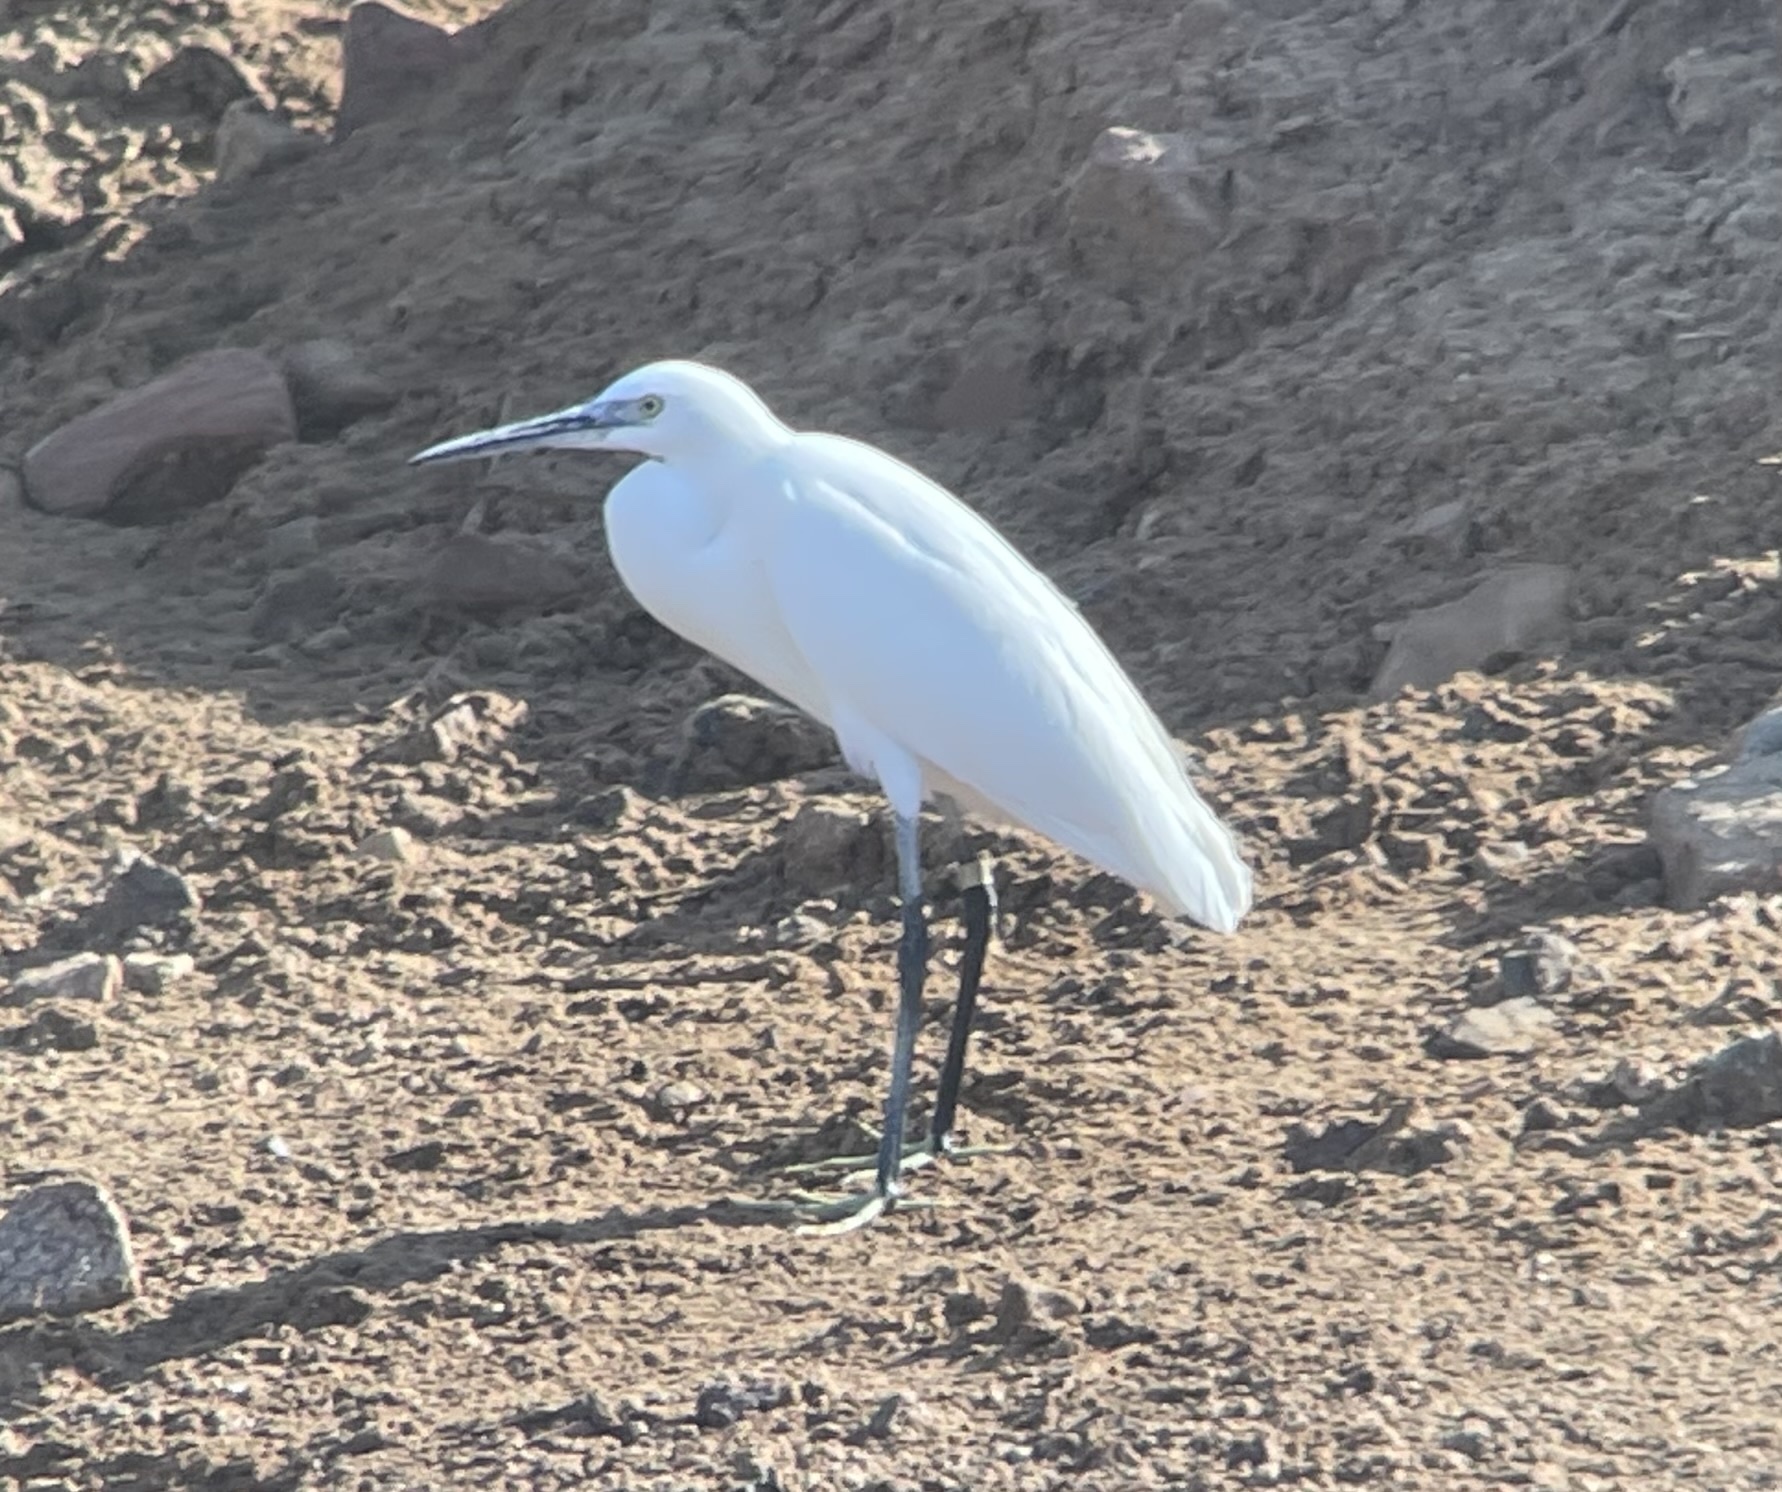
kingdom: Animalia
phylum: Chordata
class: Aves
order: Pelecaniformes
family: Ardeidae
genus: Egretta
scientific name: Egretta garzetta
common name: Little egret
